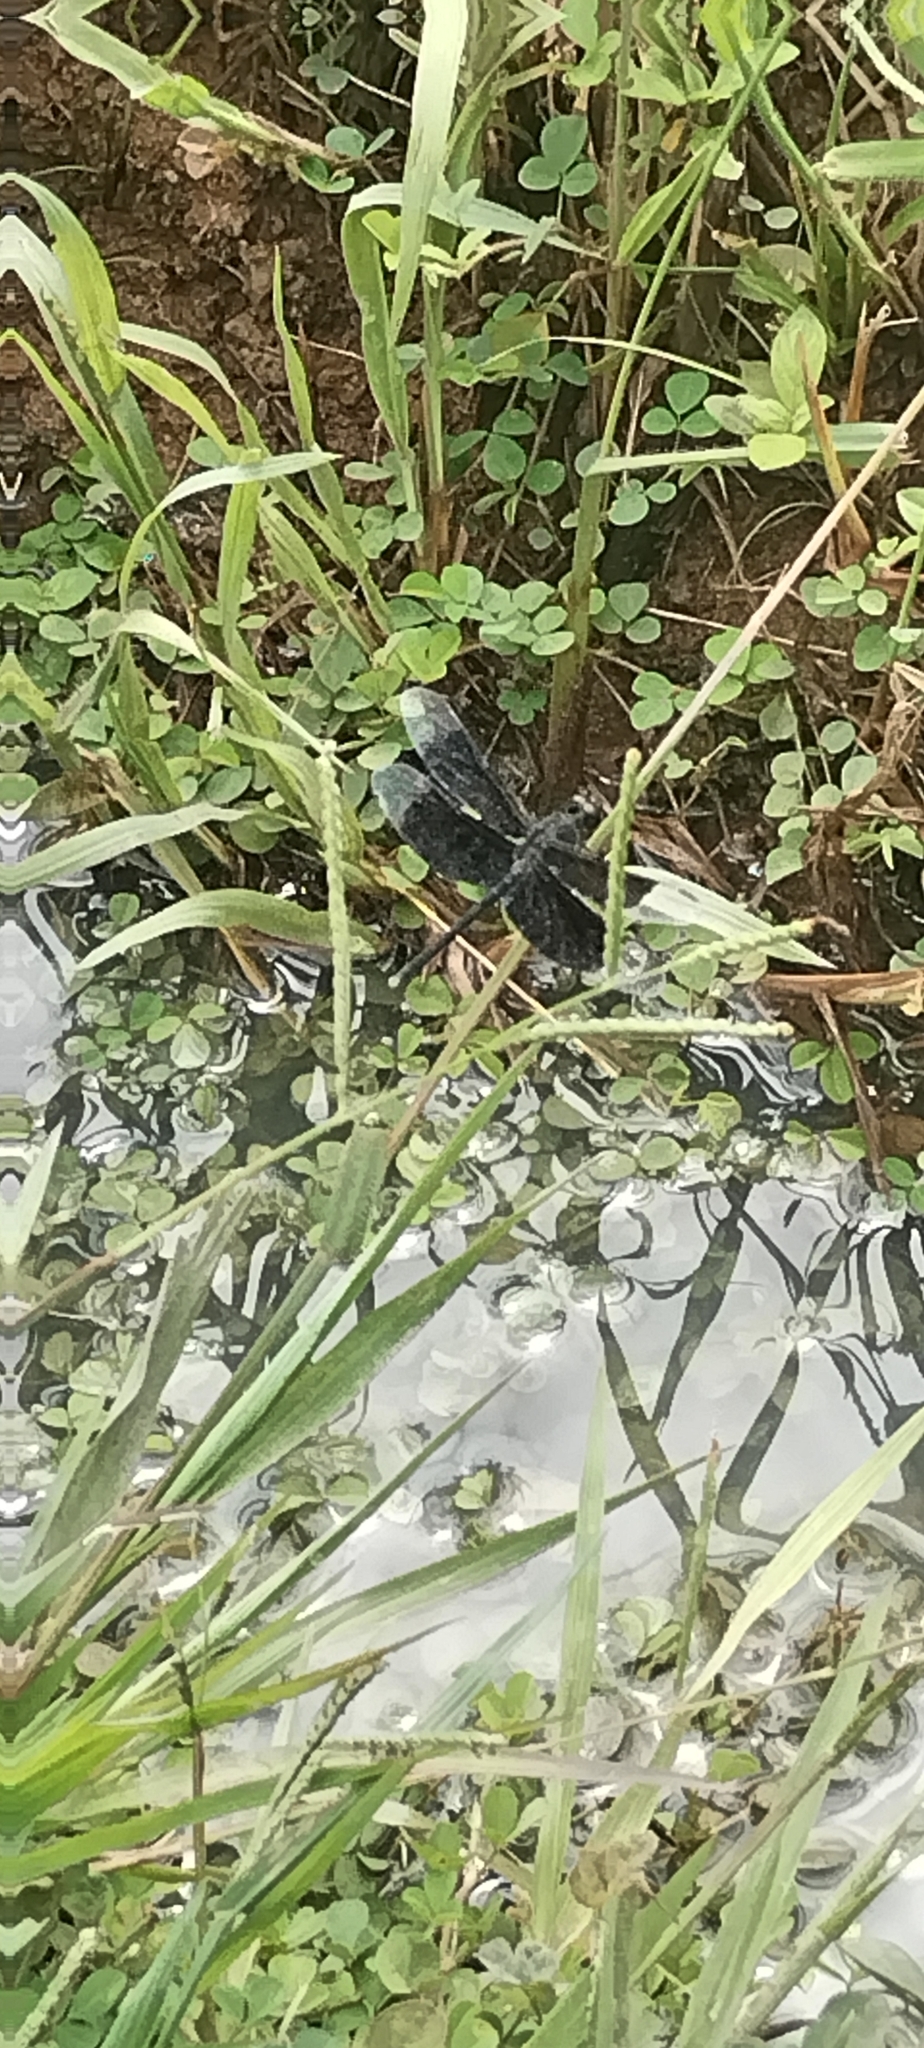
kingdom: Animalia
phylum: Arthropoda
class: Insecta
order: Odonata
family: Libellulidae
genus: Erythrodiplax
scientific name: Erythrodiplax funerea
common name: Black-winged dragonlet
